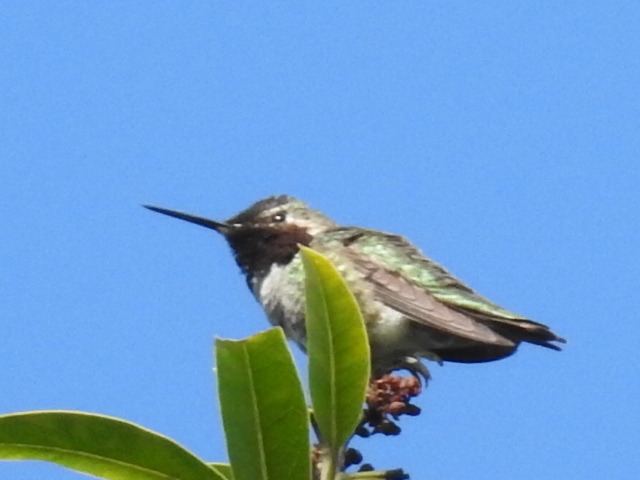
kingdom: Animalia
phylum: Chordata
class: Aves
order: Apodiformes
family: Trochilidae
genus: Calypte
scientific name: Calypte anna
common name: Anna's hummingbird
